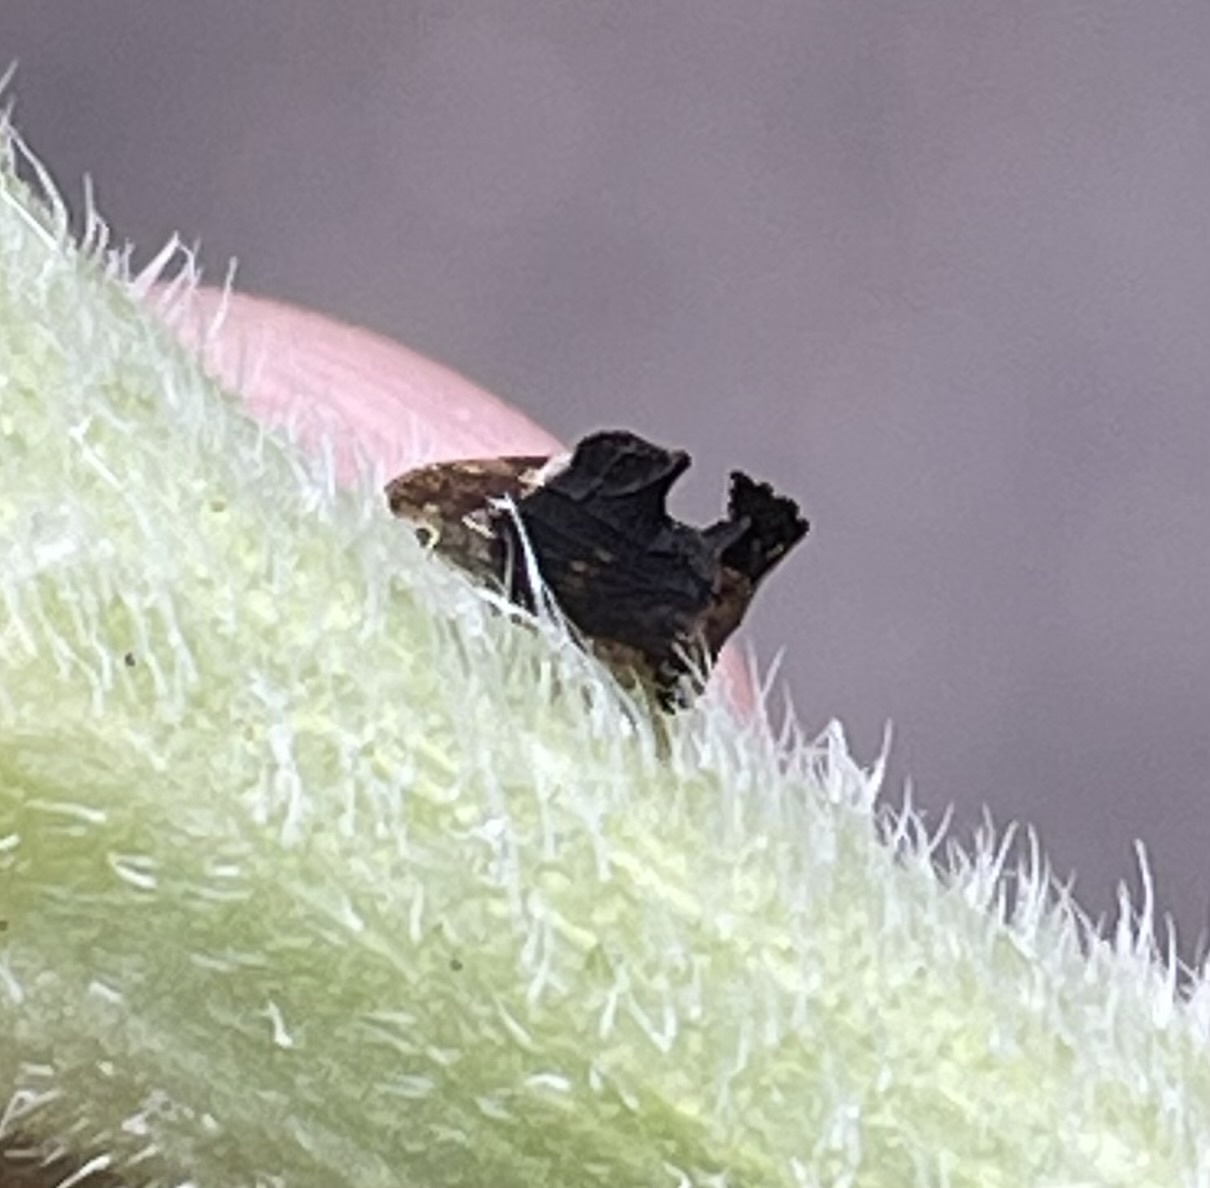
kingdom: Animalia
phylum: Arthropoda
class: Insecta
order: Hemiptera
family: Membracidae
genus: Entylia
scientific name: Entylia carinata
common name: Keeled treehopper
